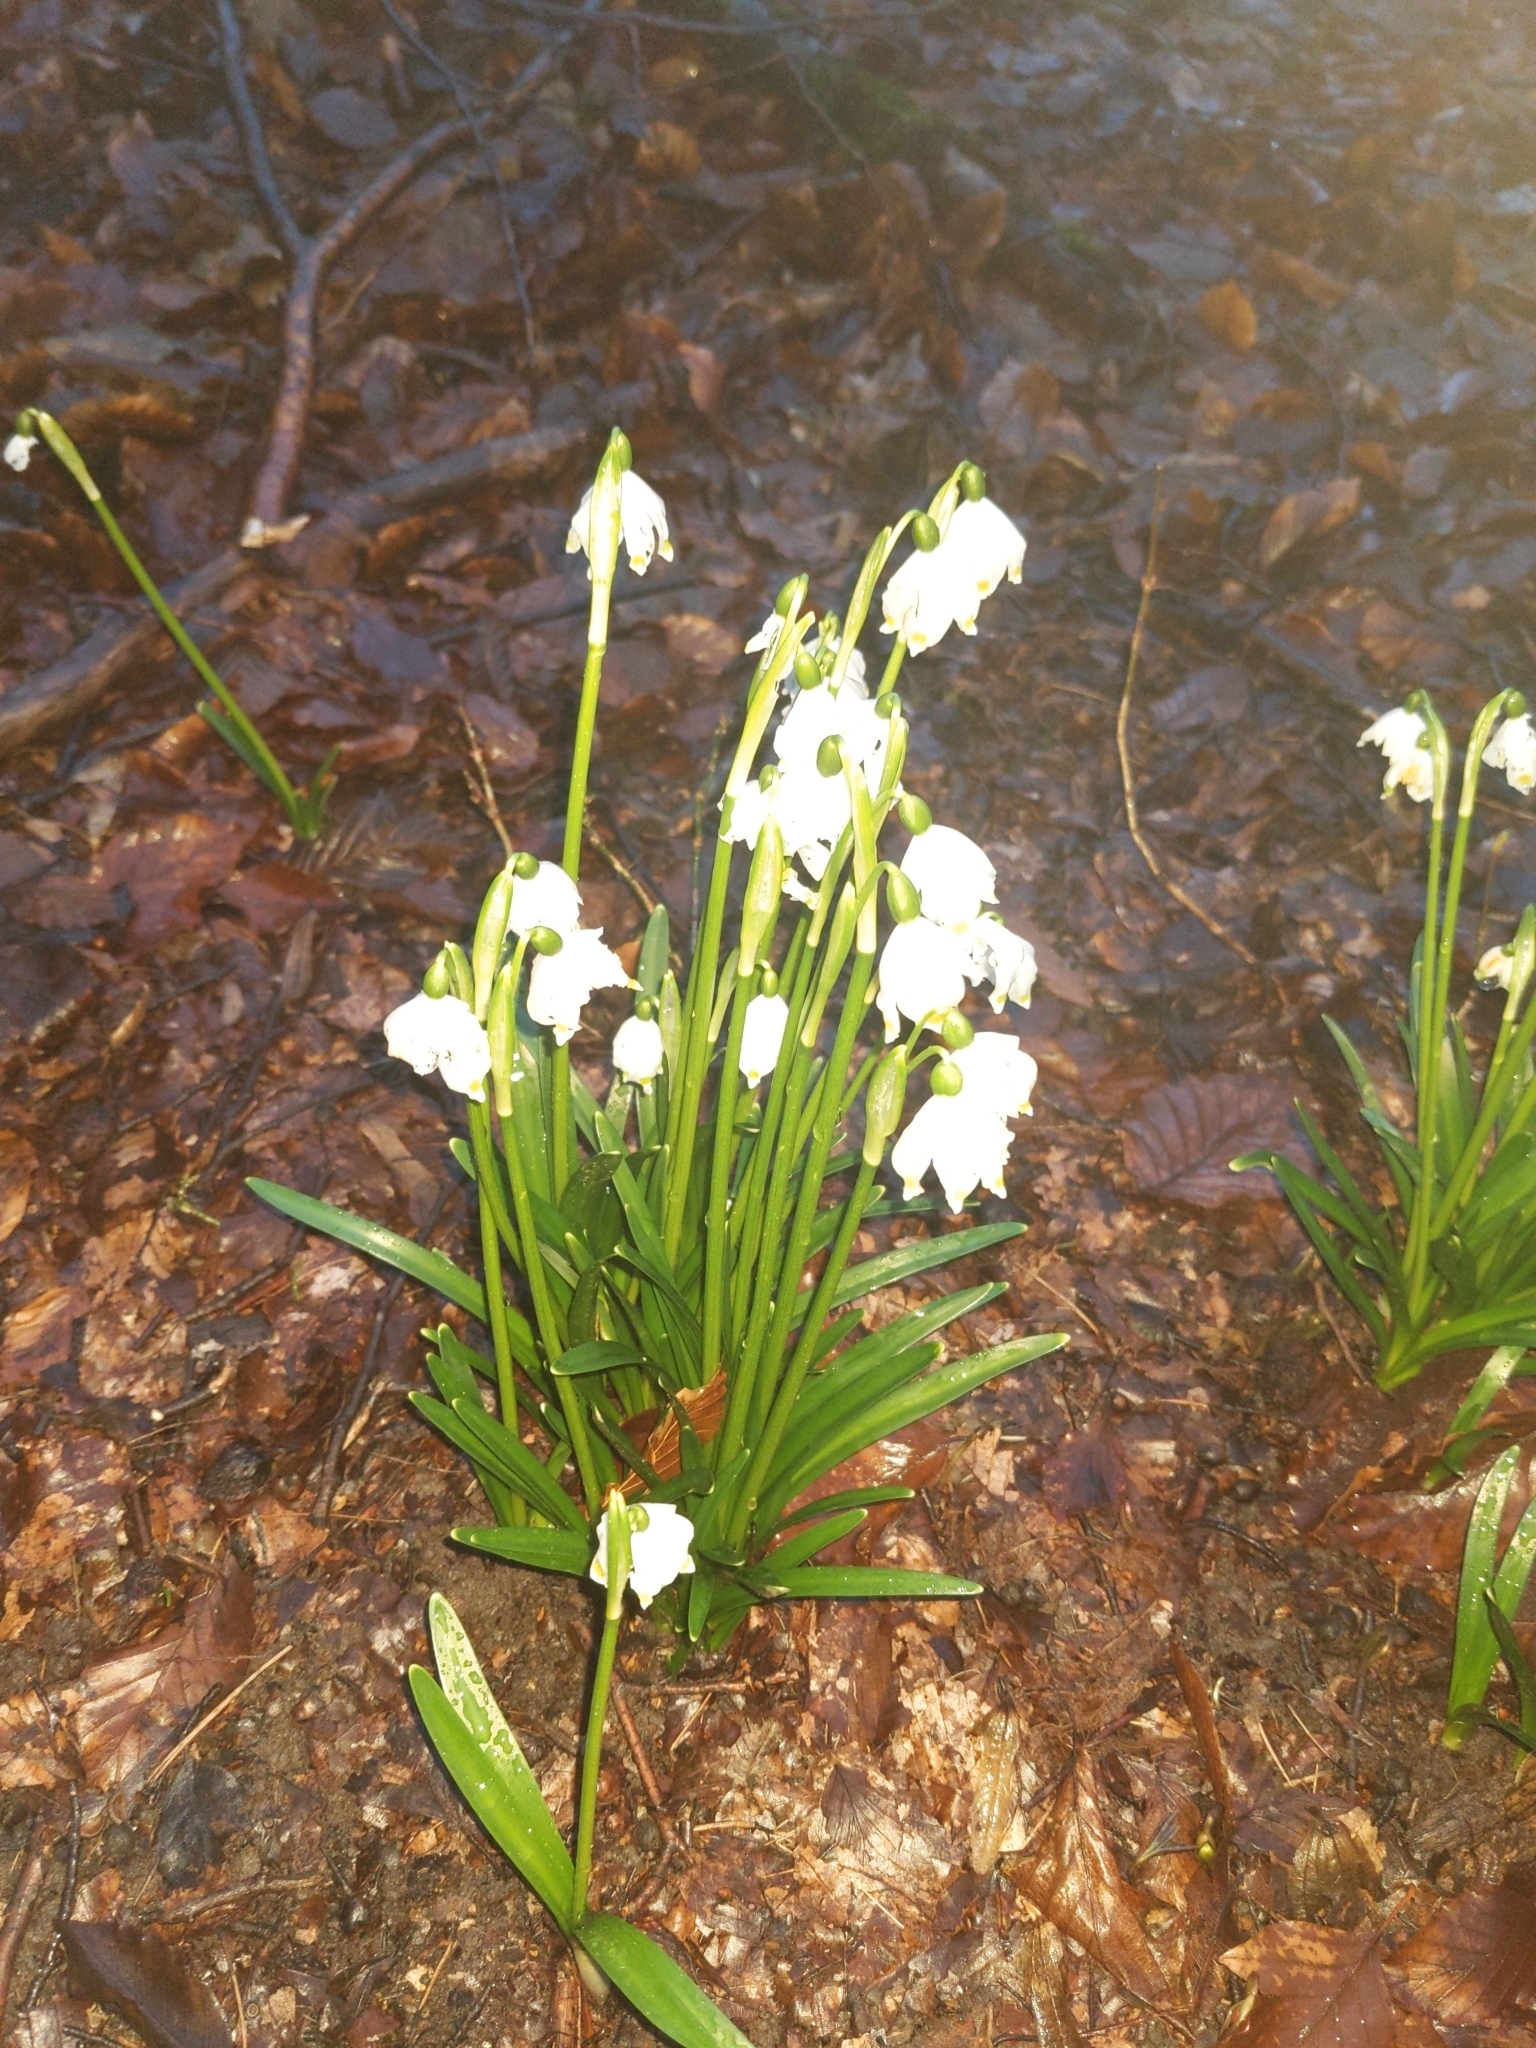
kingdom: Plantae
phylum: Tracheophyta
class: Liliopsida
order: Asparagales
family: Amaryllidaceae
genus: Leucojum
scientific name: Leucojum vernum
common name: Spring snowflake
